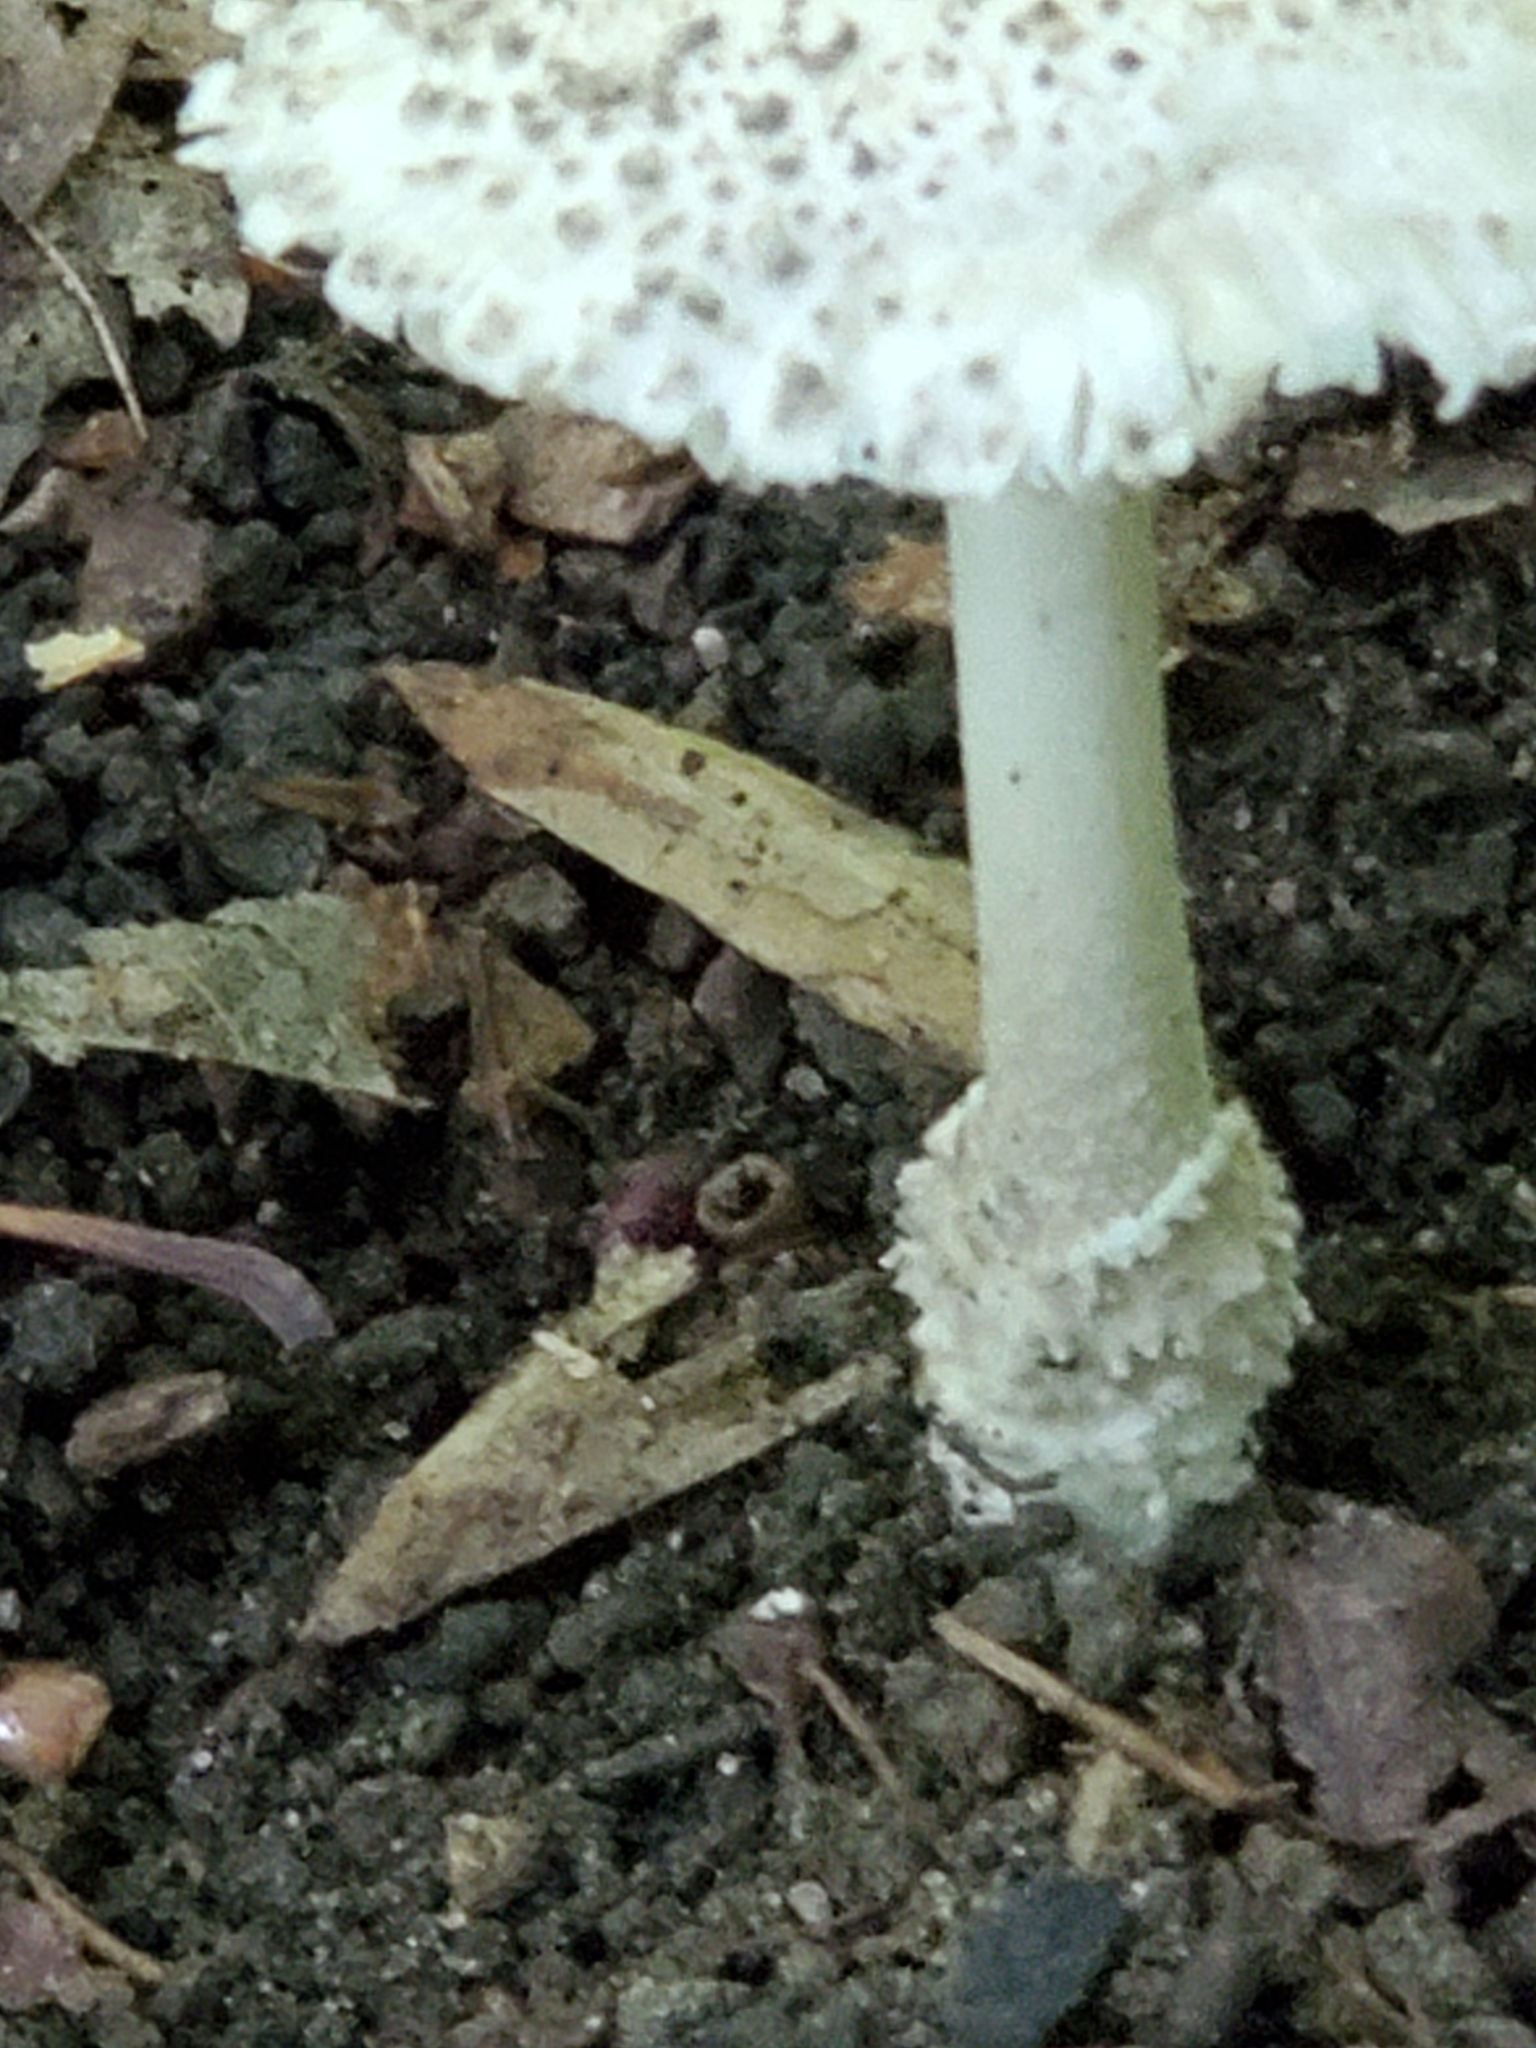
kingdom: Fungi
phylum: Basidiomycota
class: Agaricomycetes
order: Agaricales
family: Amanitaceae
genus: Amanita
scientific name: Amanita onusta
